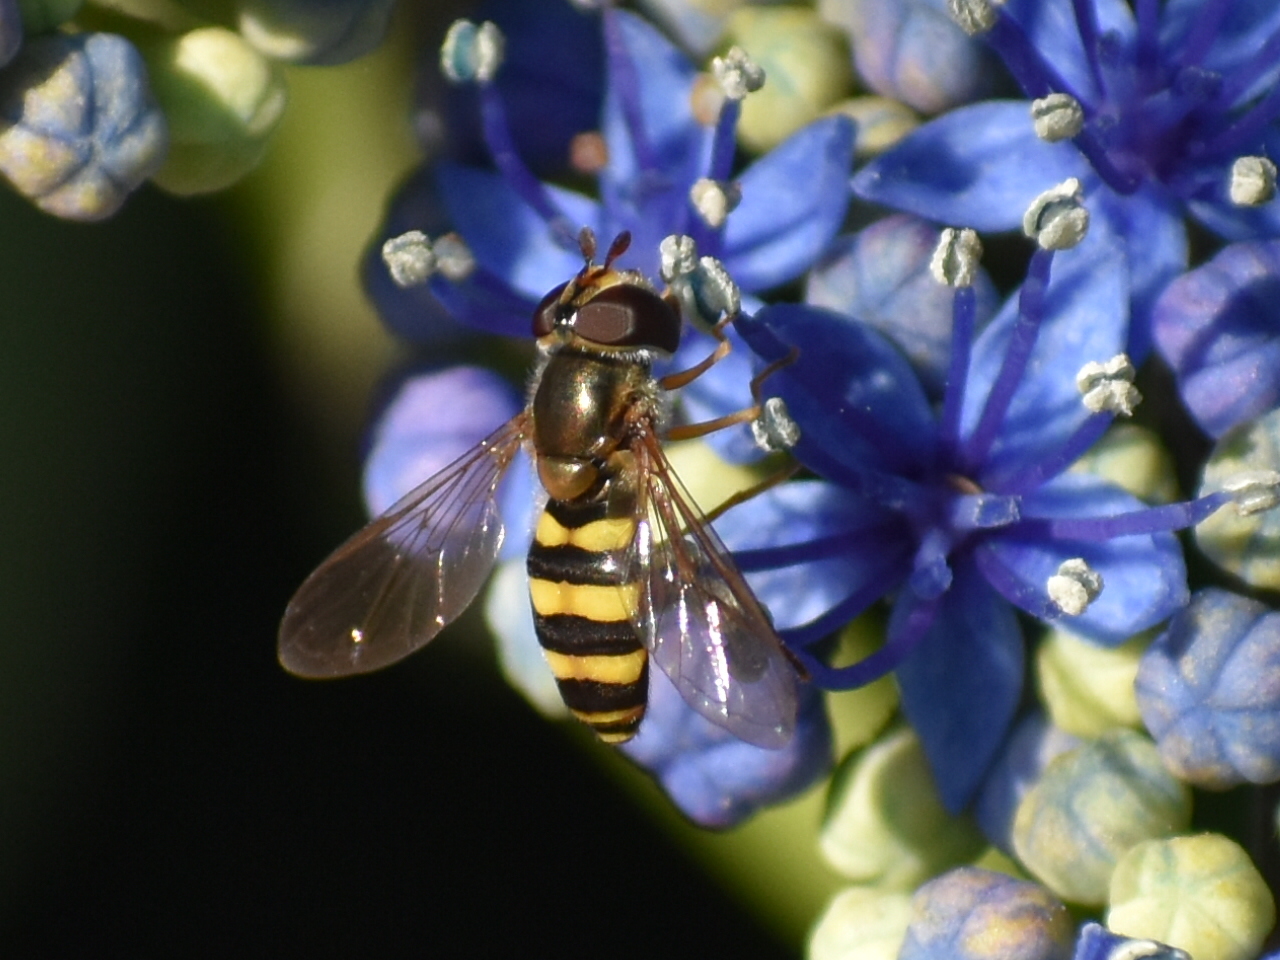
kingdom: Animalia
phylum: Arthropoda
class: Insecta
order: Diptera
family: Syrphidae
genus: Eupeodes
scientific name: Eupeodes
